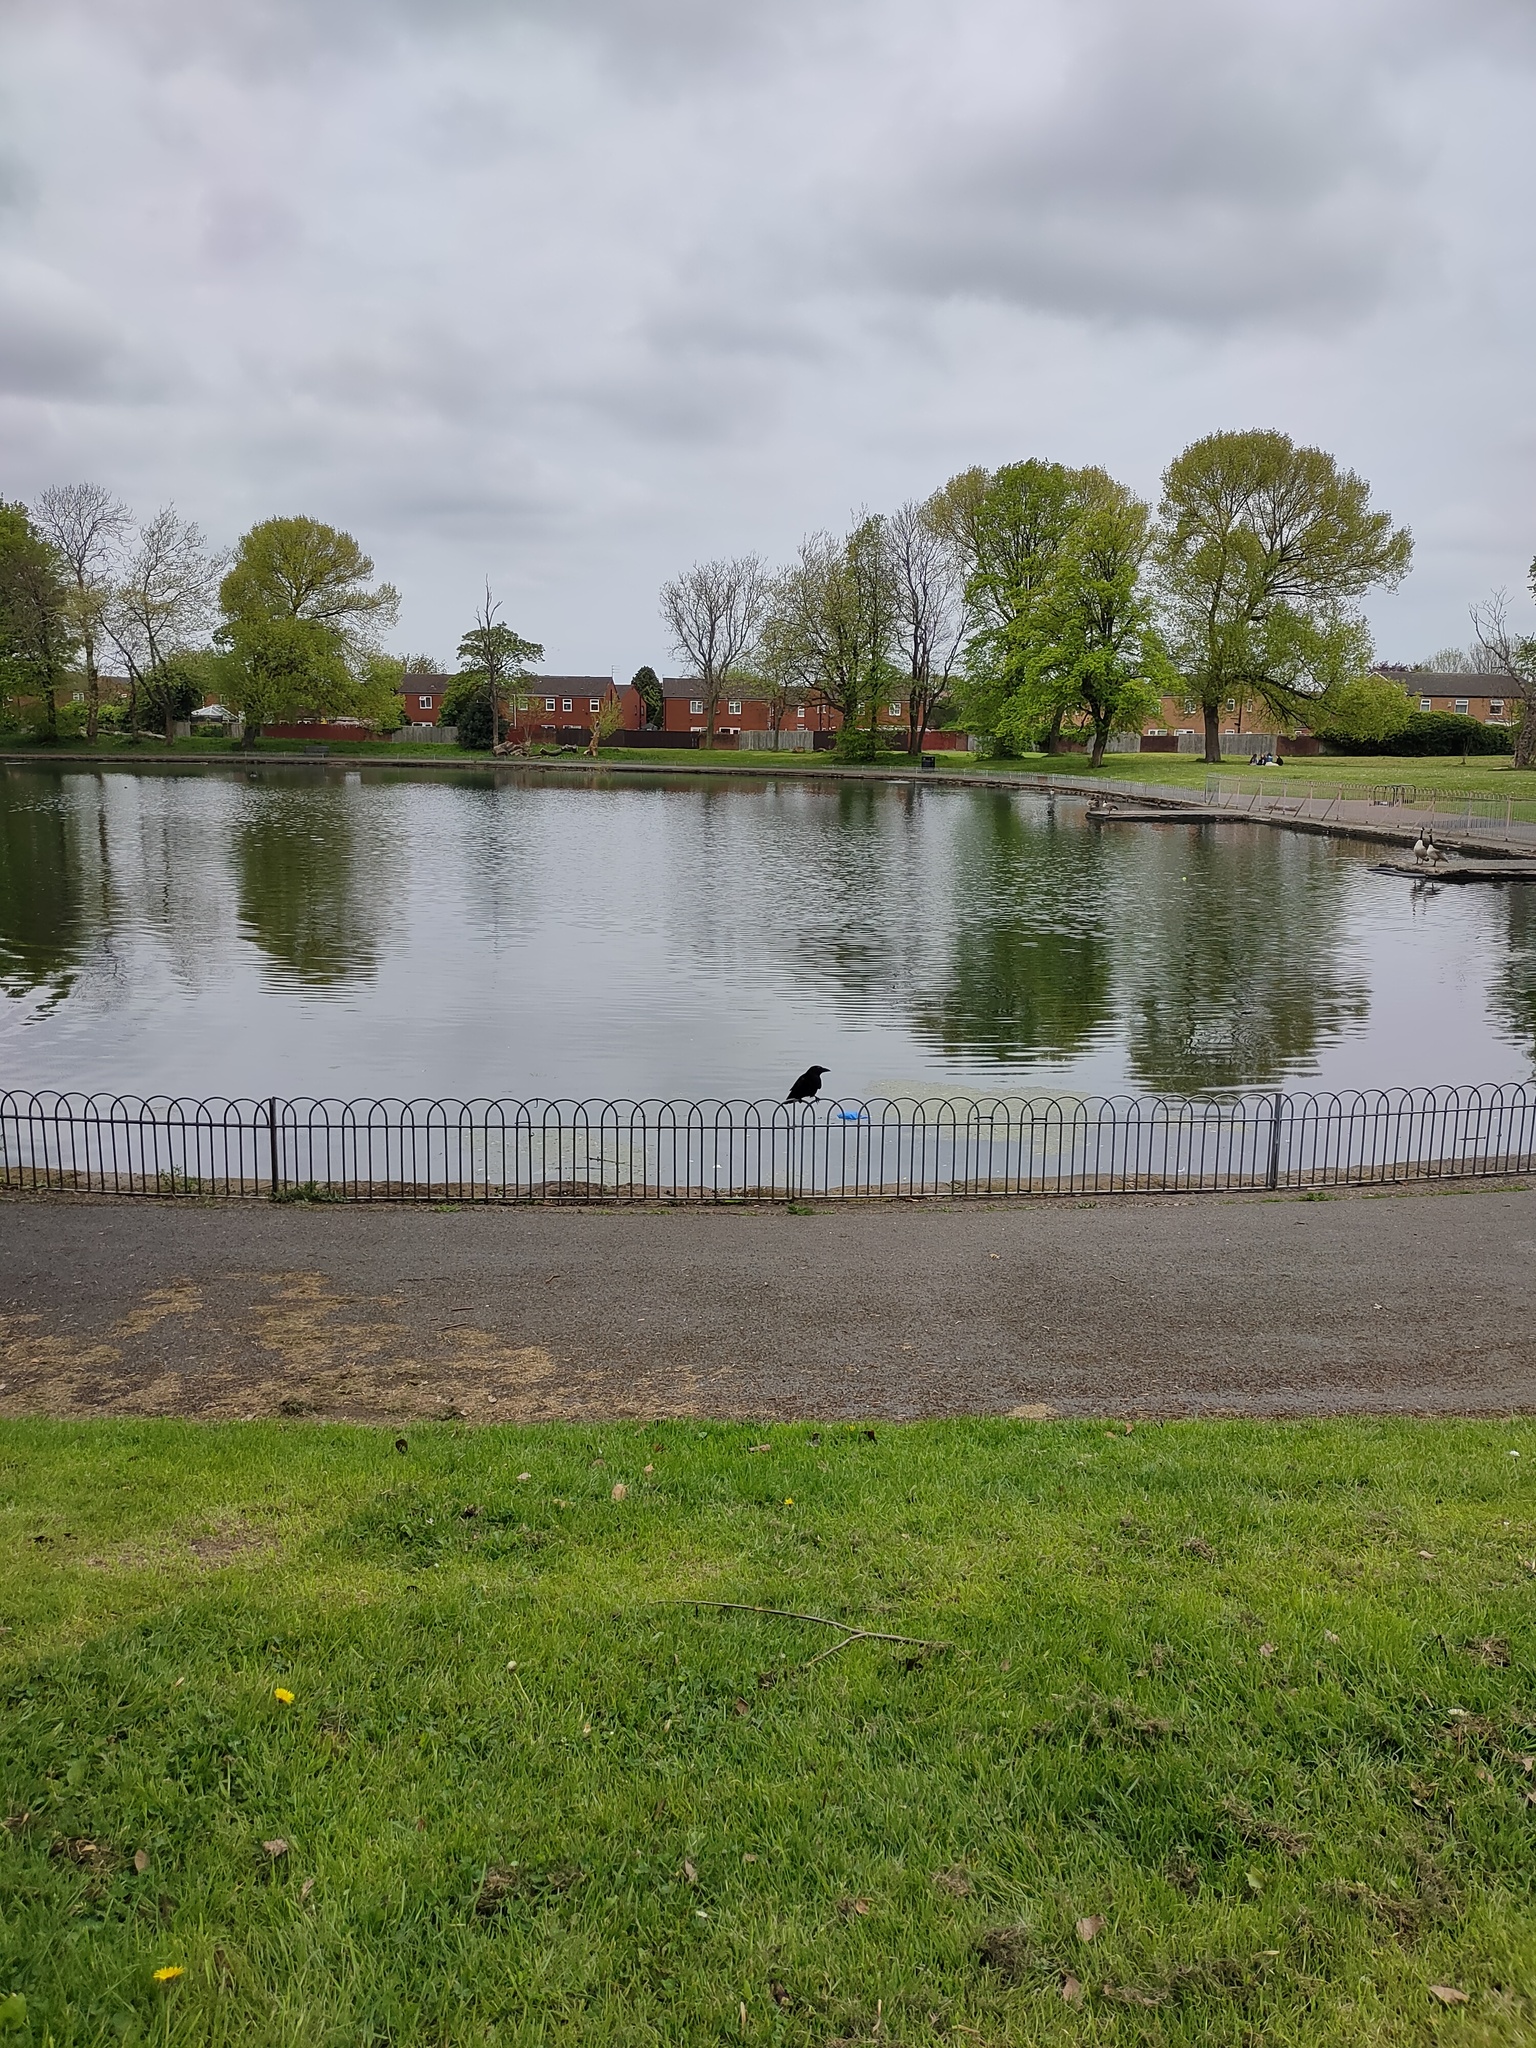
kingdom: Animalia
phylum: Chordata
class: Aves
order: Passeriformes
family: Corvidae
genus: Corvus
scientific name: Corvus corone
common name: Carrion crow
